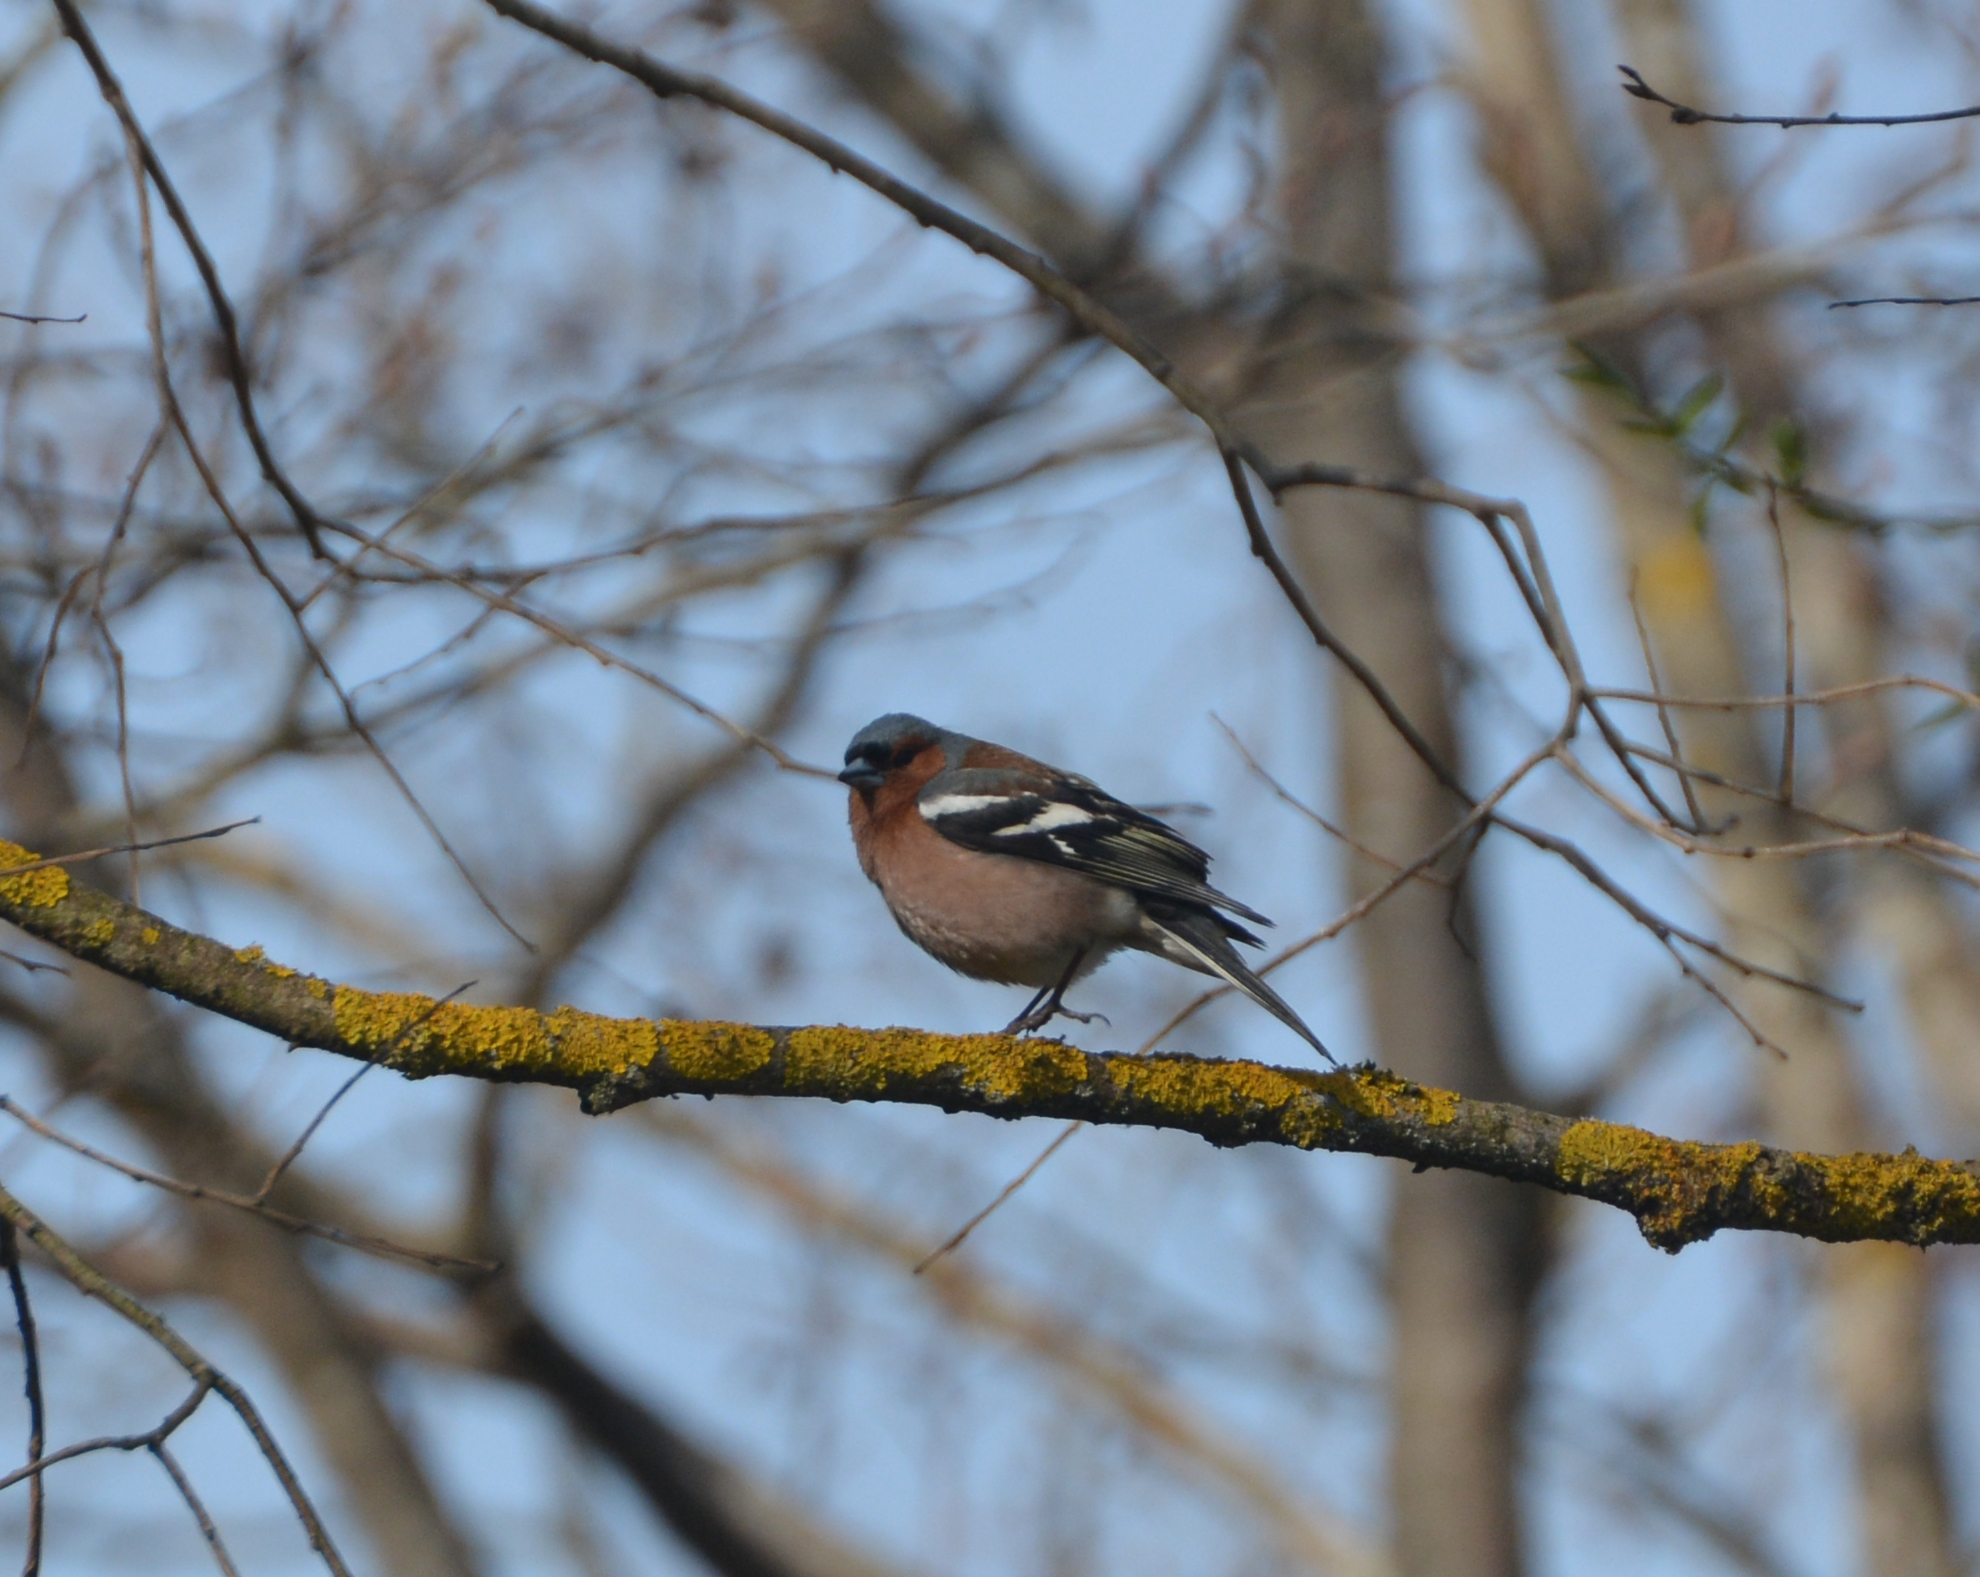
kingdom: Animalia
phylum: Chordata
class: Aves
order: Passeriformes
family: Fringillidae
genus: Fringilla
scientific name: Fringilla coelebs
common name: Common chaffinch
